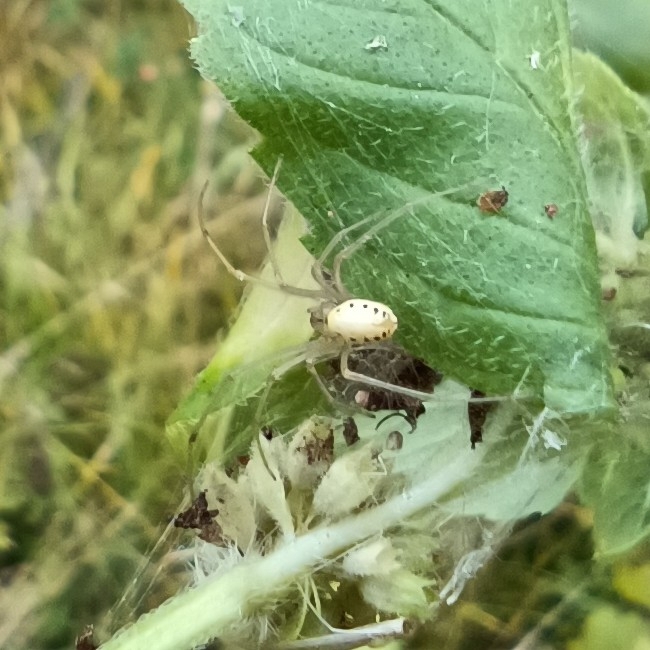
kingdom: Animalia
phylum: Arthropoda
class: Arachnida
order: Araneae
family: Theridiidae
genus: Enoplognatha
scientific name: Enoplognatha
